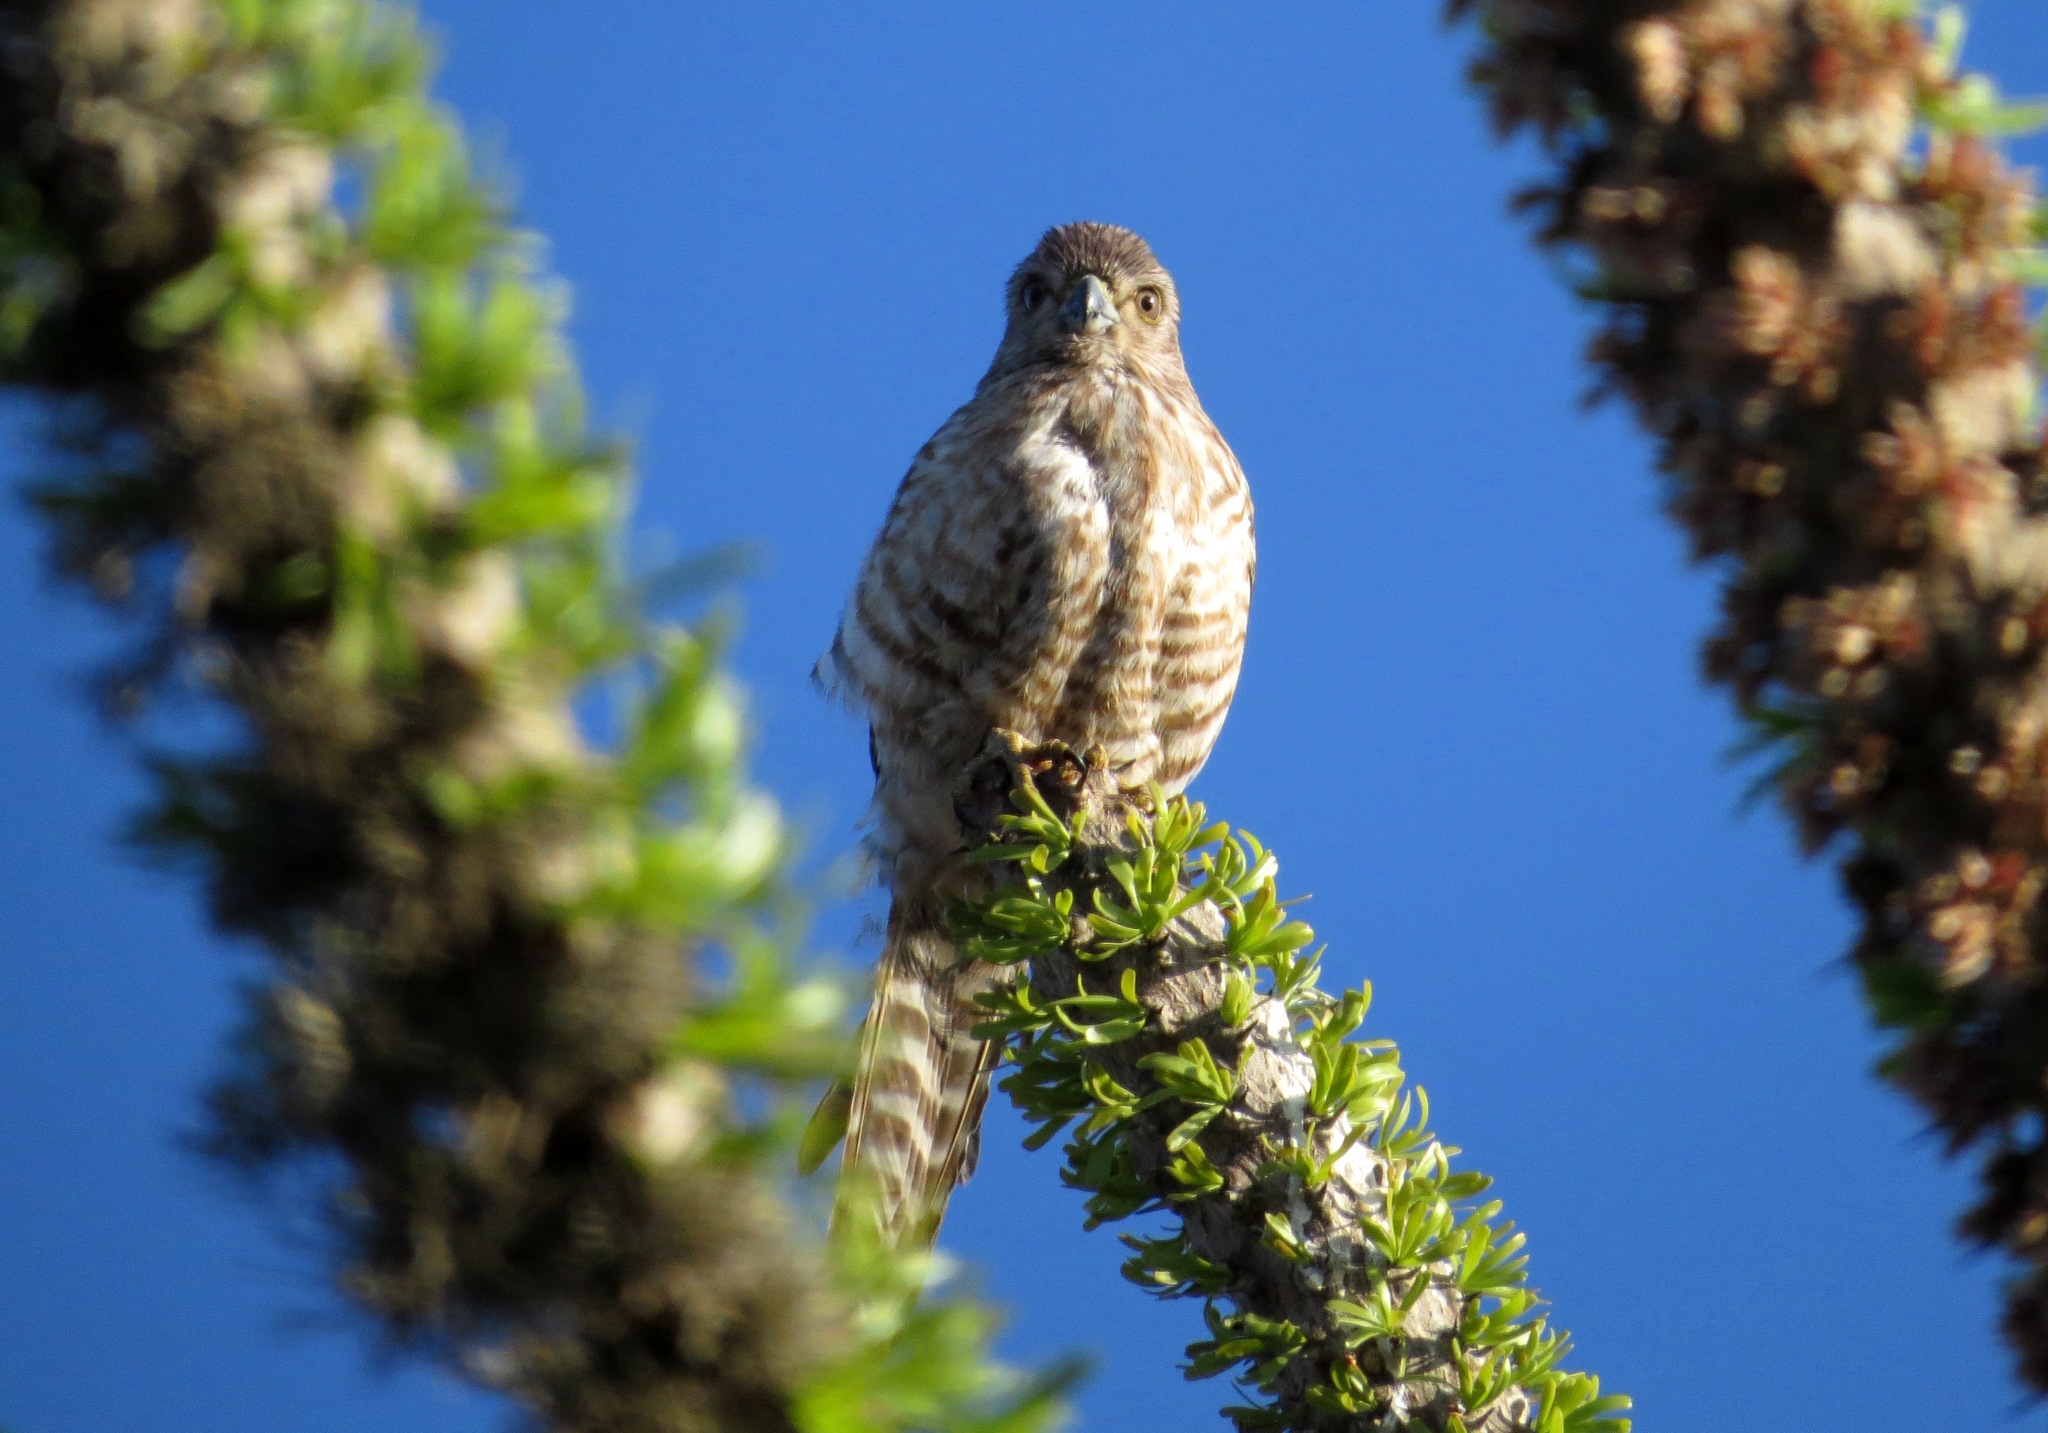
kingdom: Animalia
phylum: Chordata
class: Aves
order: Falconiformes
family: Falconidae
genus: Falco
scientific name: Falco zoniventris
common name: Banded kestrel
